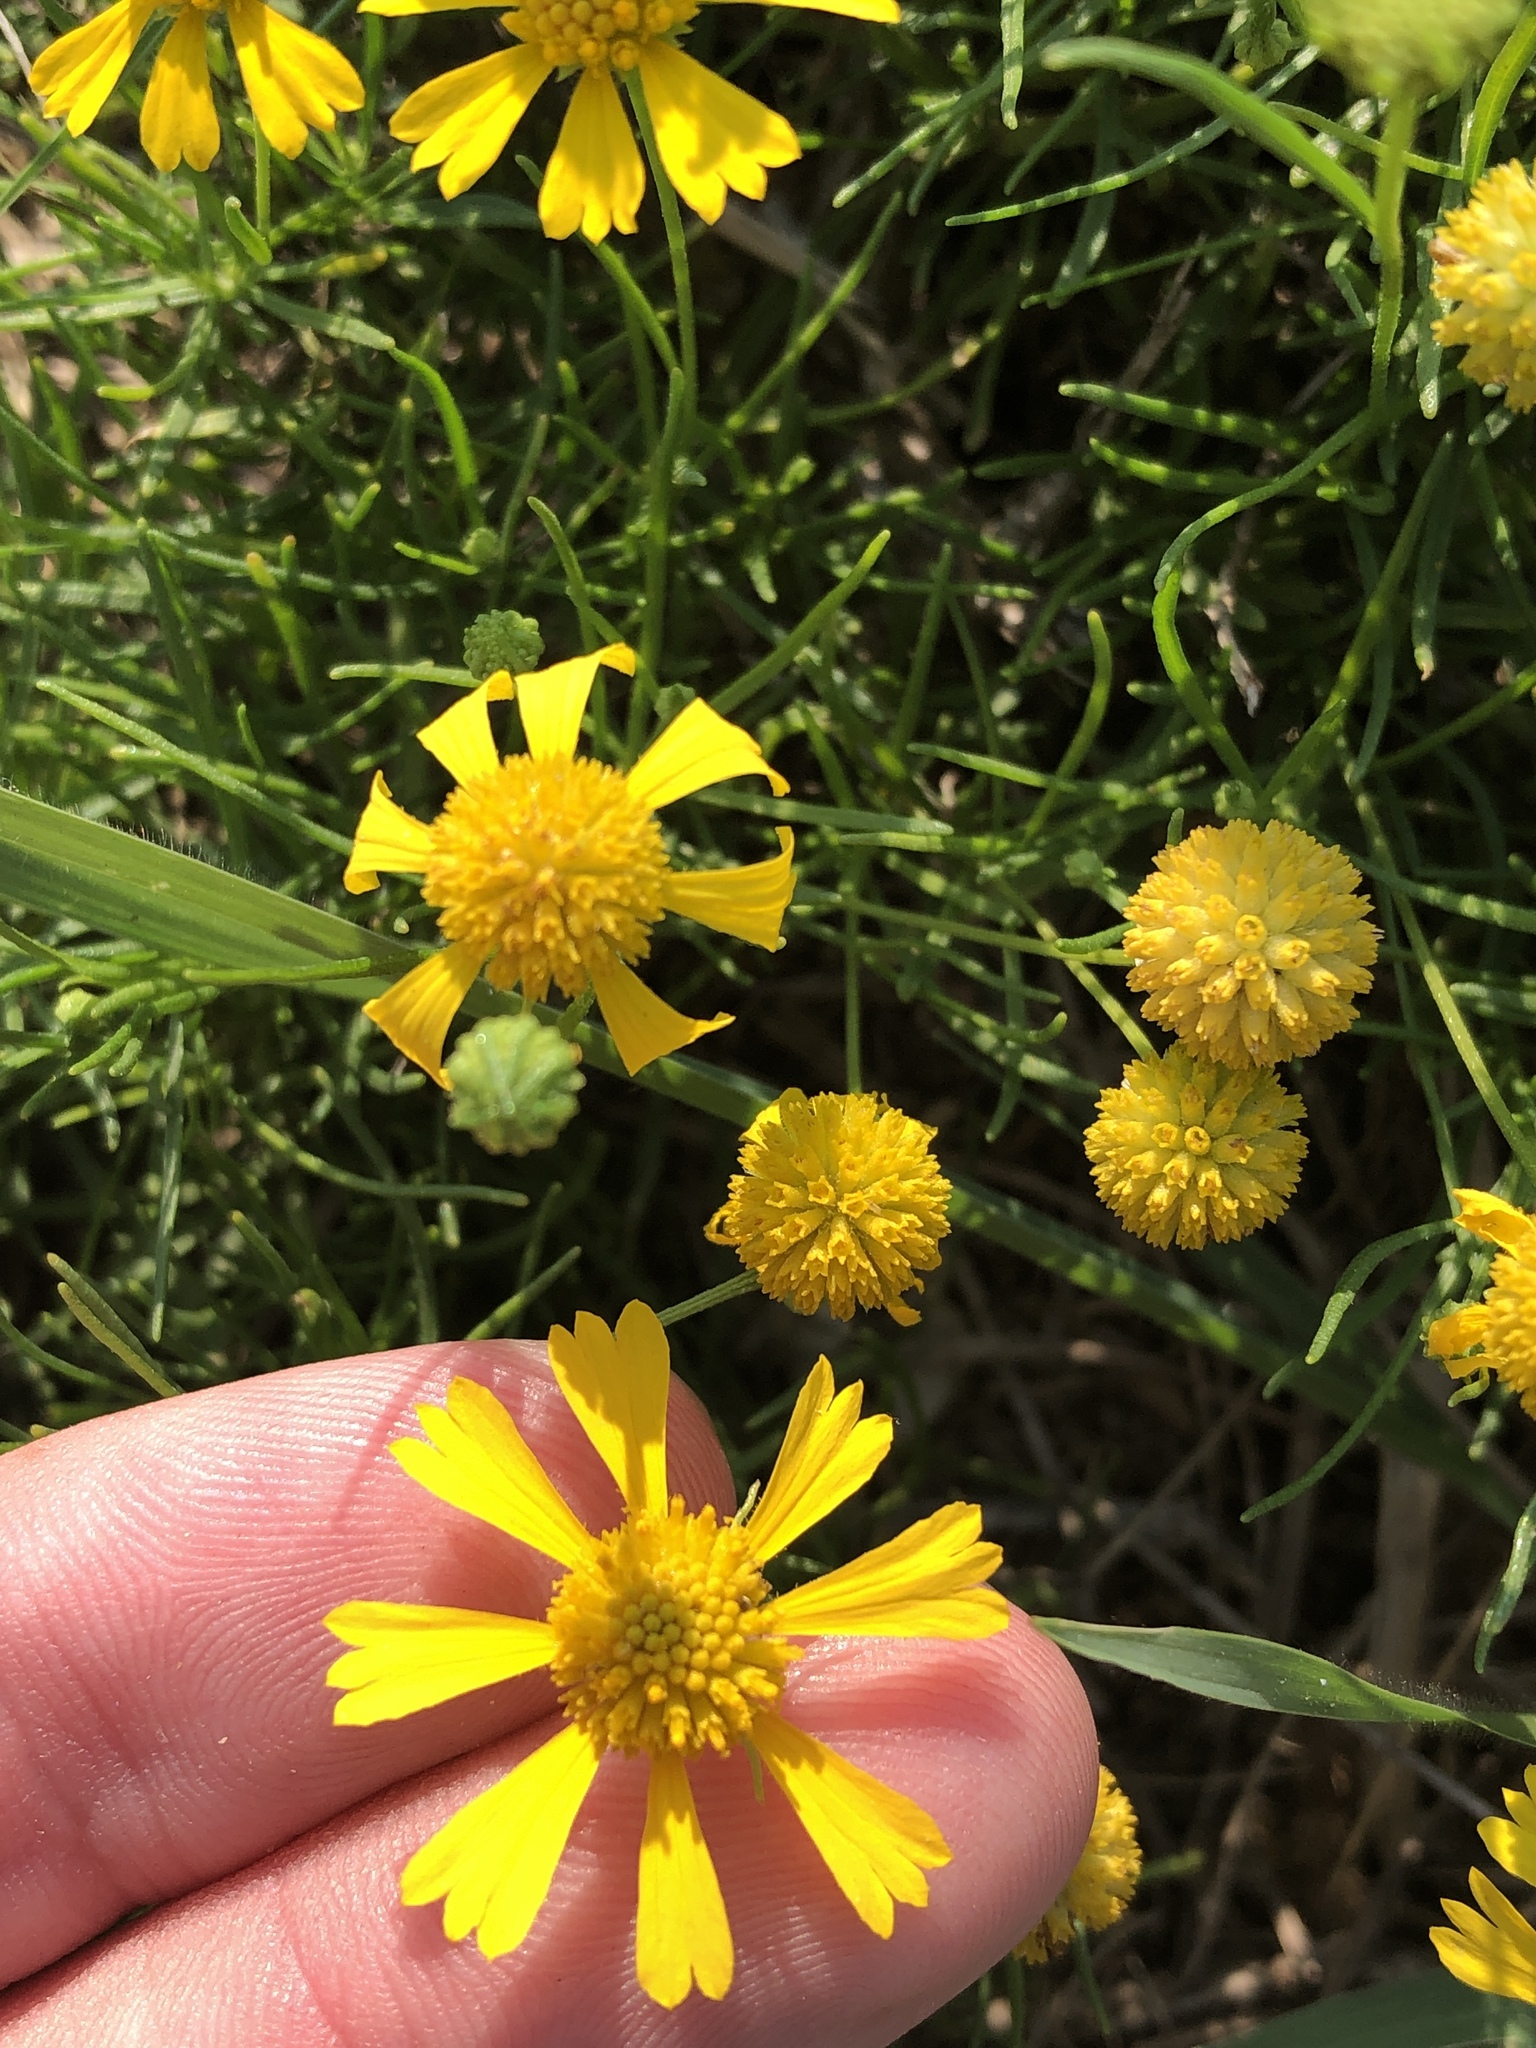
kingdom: Plantae
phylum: Tracheophyta
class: Magnoliopsida
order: Asterales
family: Asteraceae
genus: Helenium
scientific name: Helenium amarum
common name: Bitter sneezeweed
